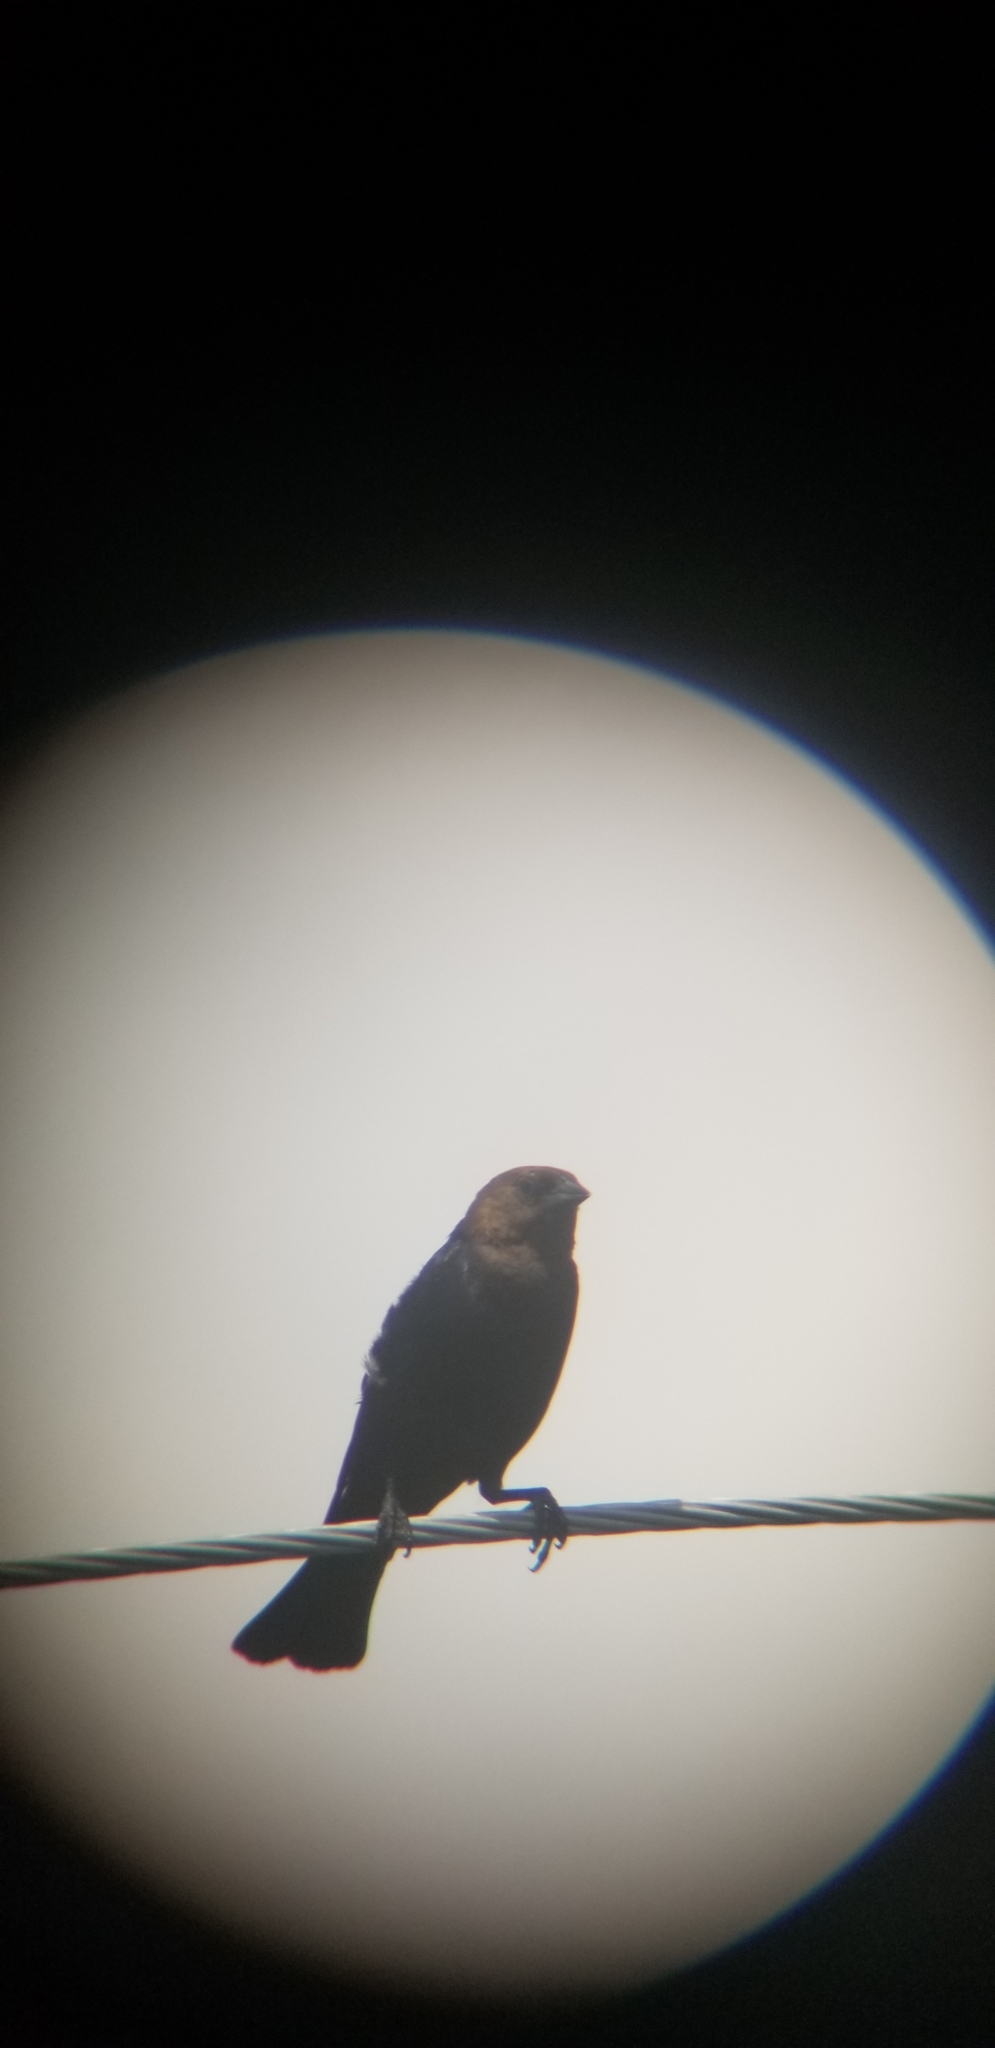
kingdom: Animalia
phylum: Chordata
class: Aves
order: Passeriformes
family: Icteridae
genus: Molothrus
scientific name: Molothrus ater
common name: Brown-headed cowbird
